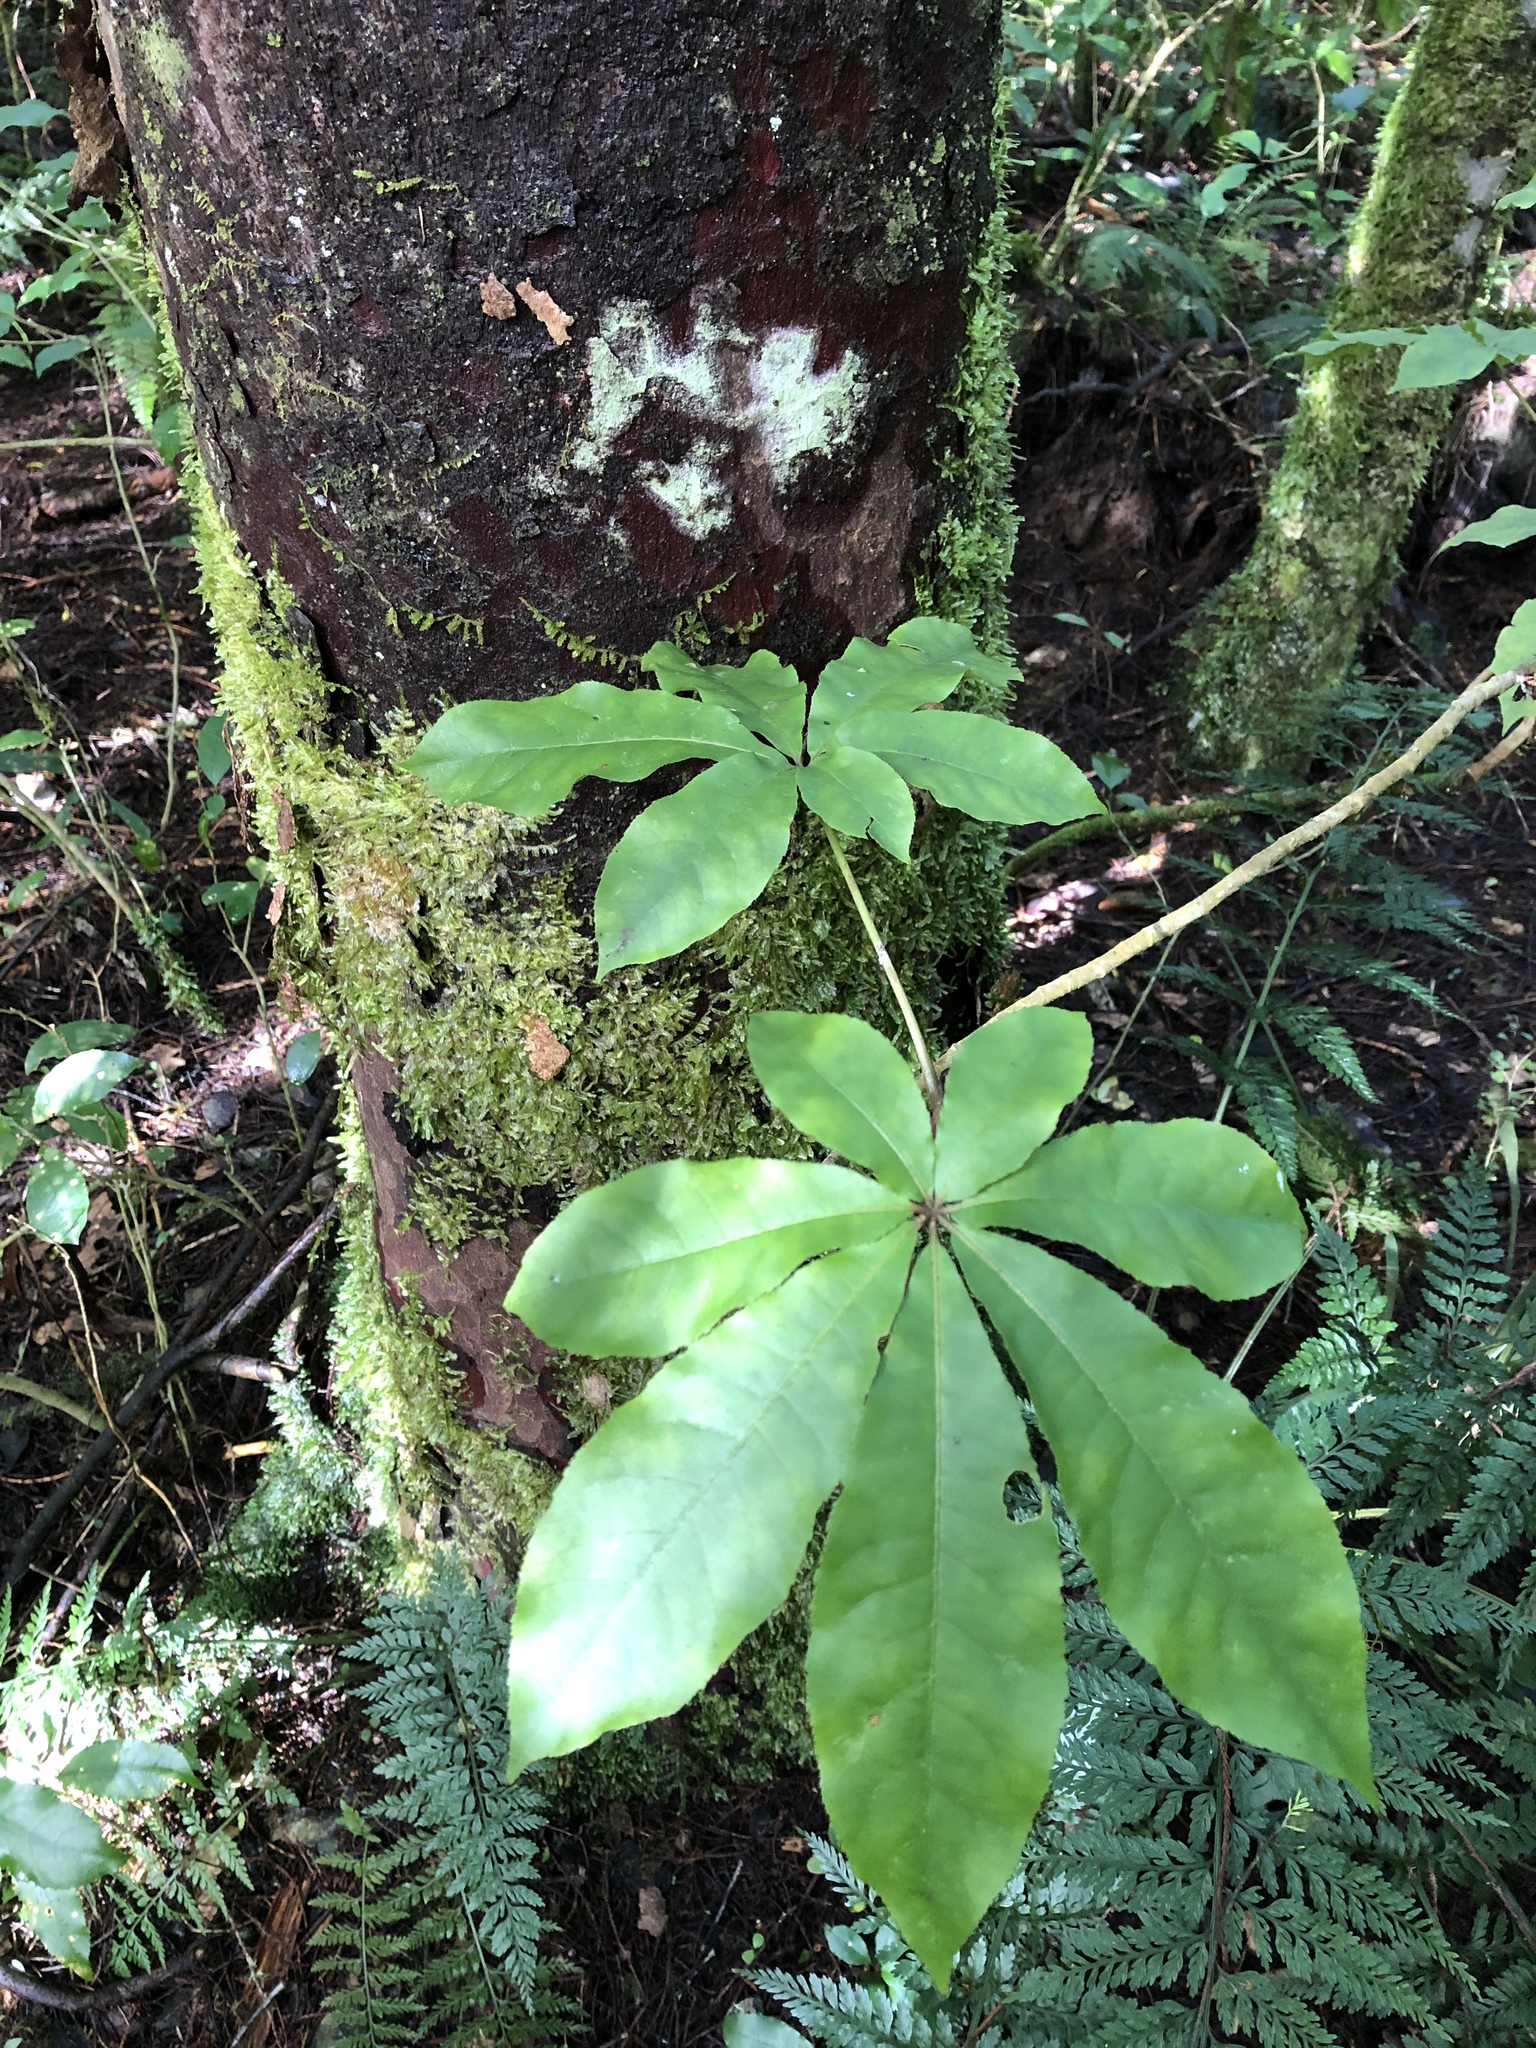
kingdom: Plantae
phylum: Tracheophyta
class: Magnoliopsida
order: Apiales
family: Araliaceae
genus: Schefflera
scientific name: Schefflera digitata
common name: Pate
